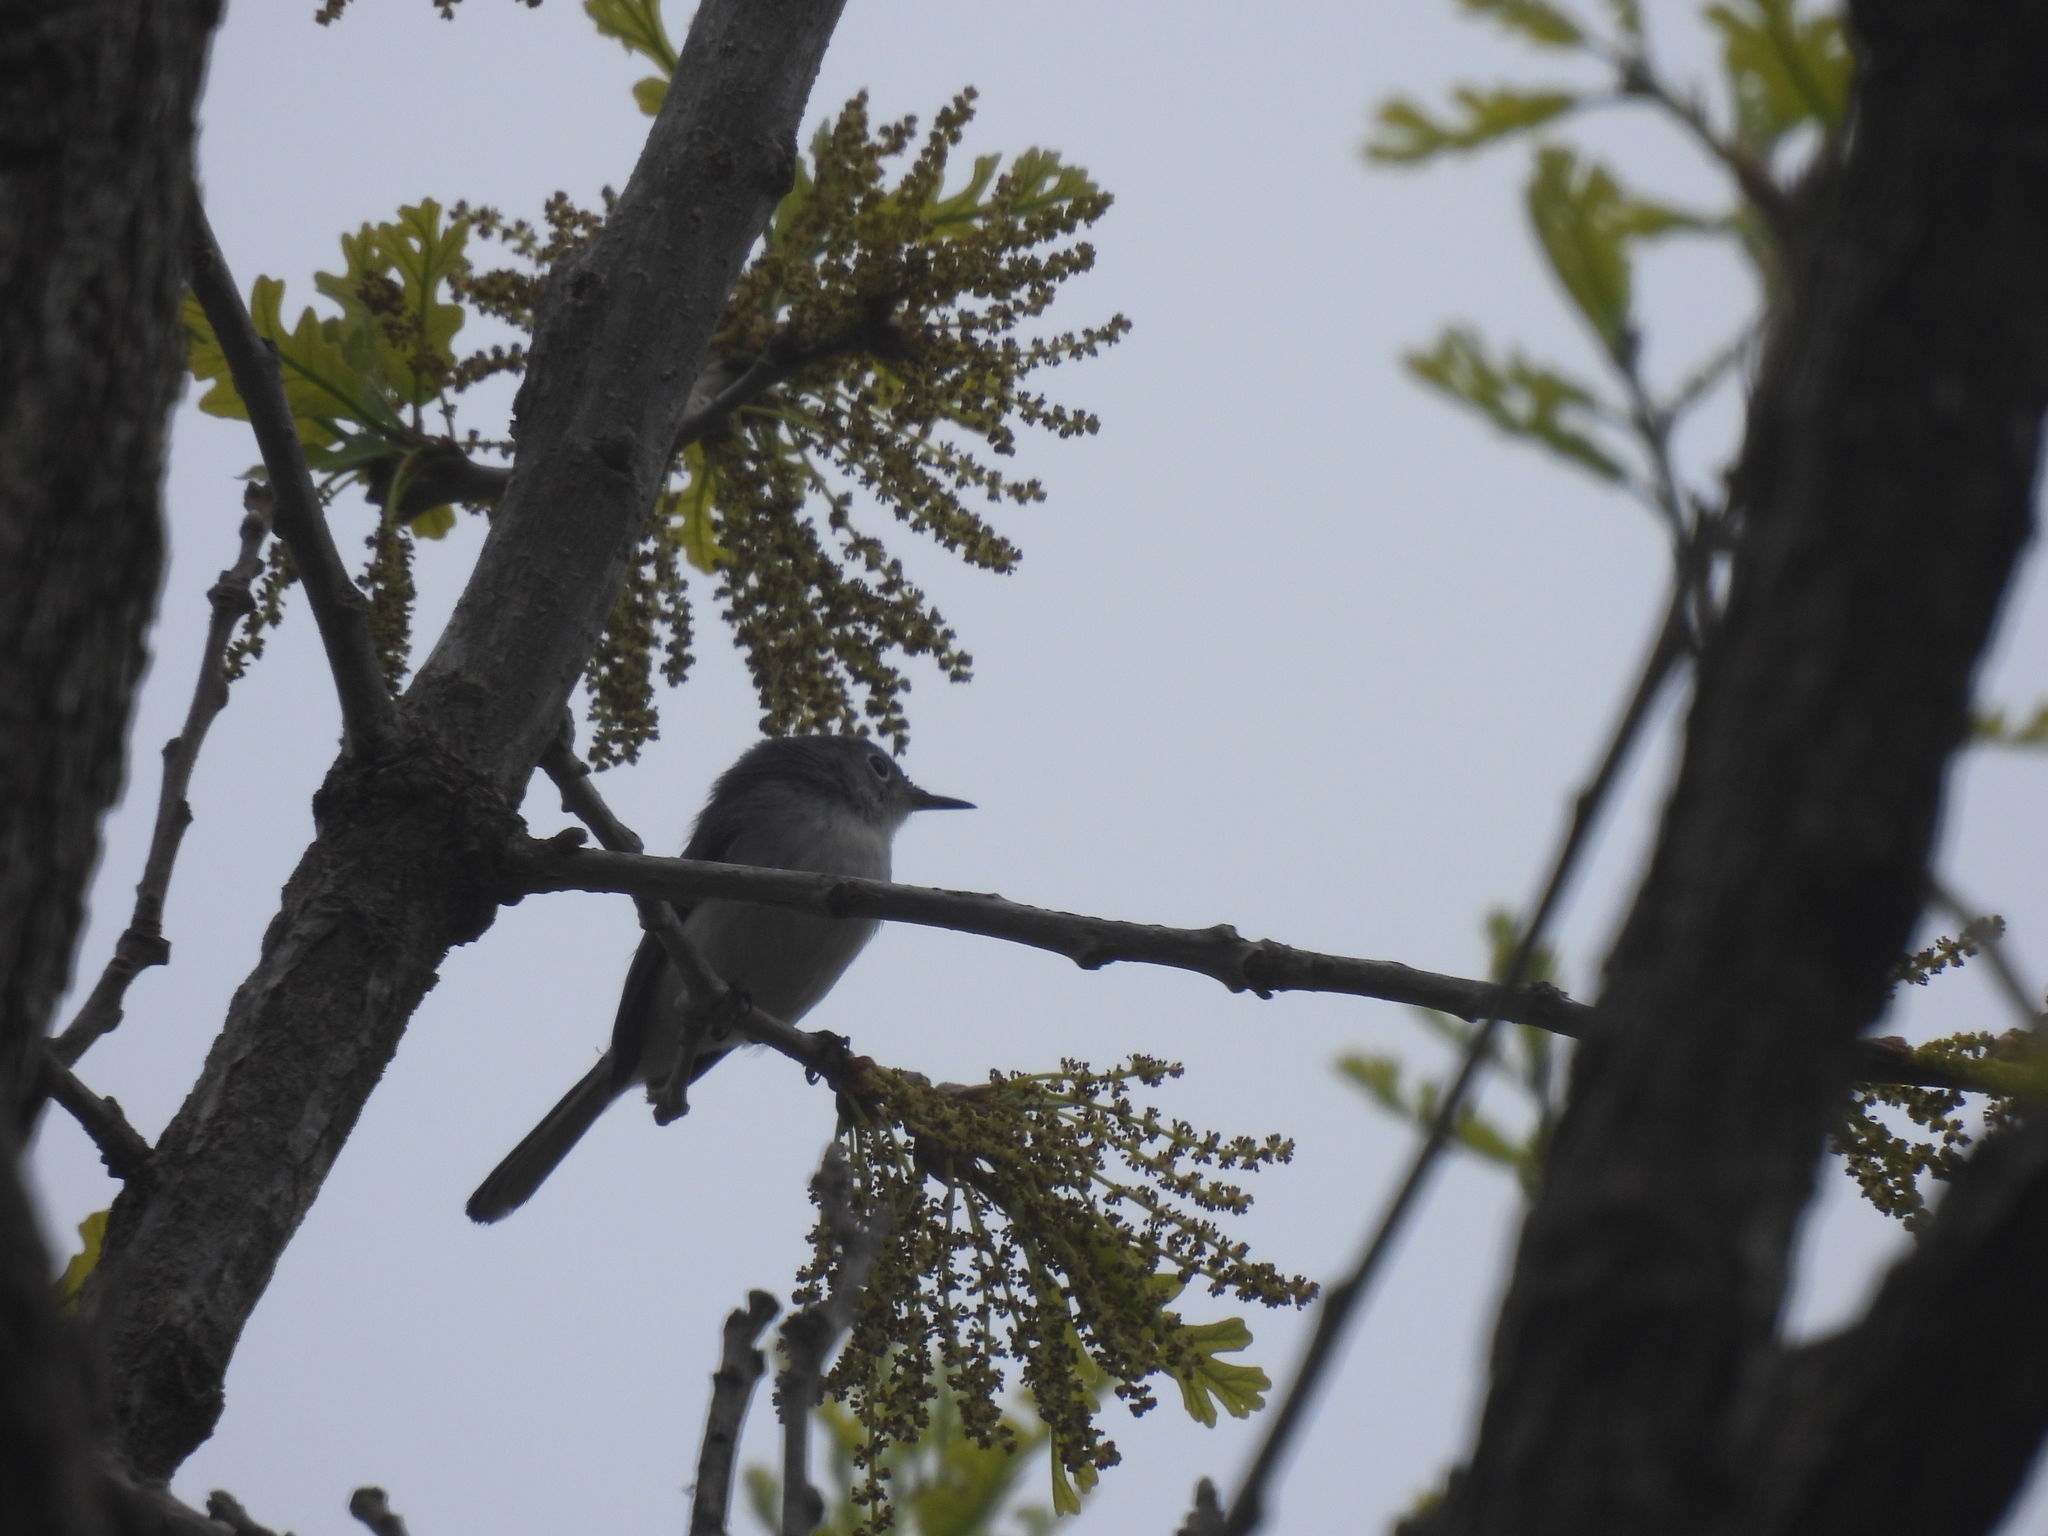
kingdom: Animalia
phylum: Chordata
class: Aves
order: Passeriformes
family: Polioptilidae
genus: Polioptila
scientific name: Polioptila caerulea
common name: Blue-gray gnatcatcher
